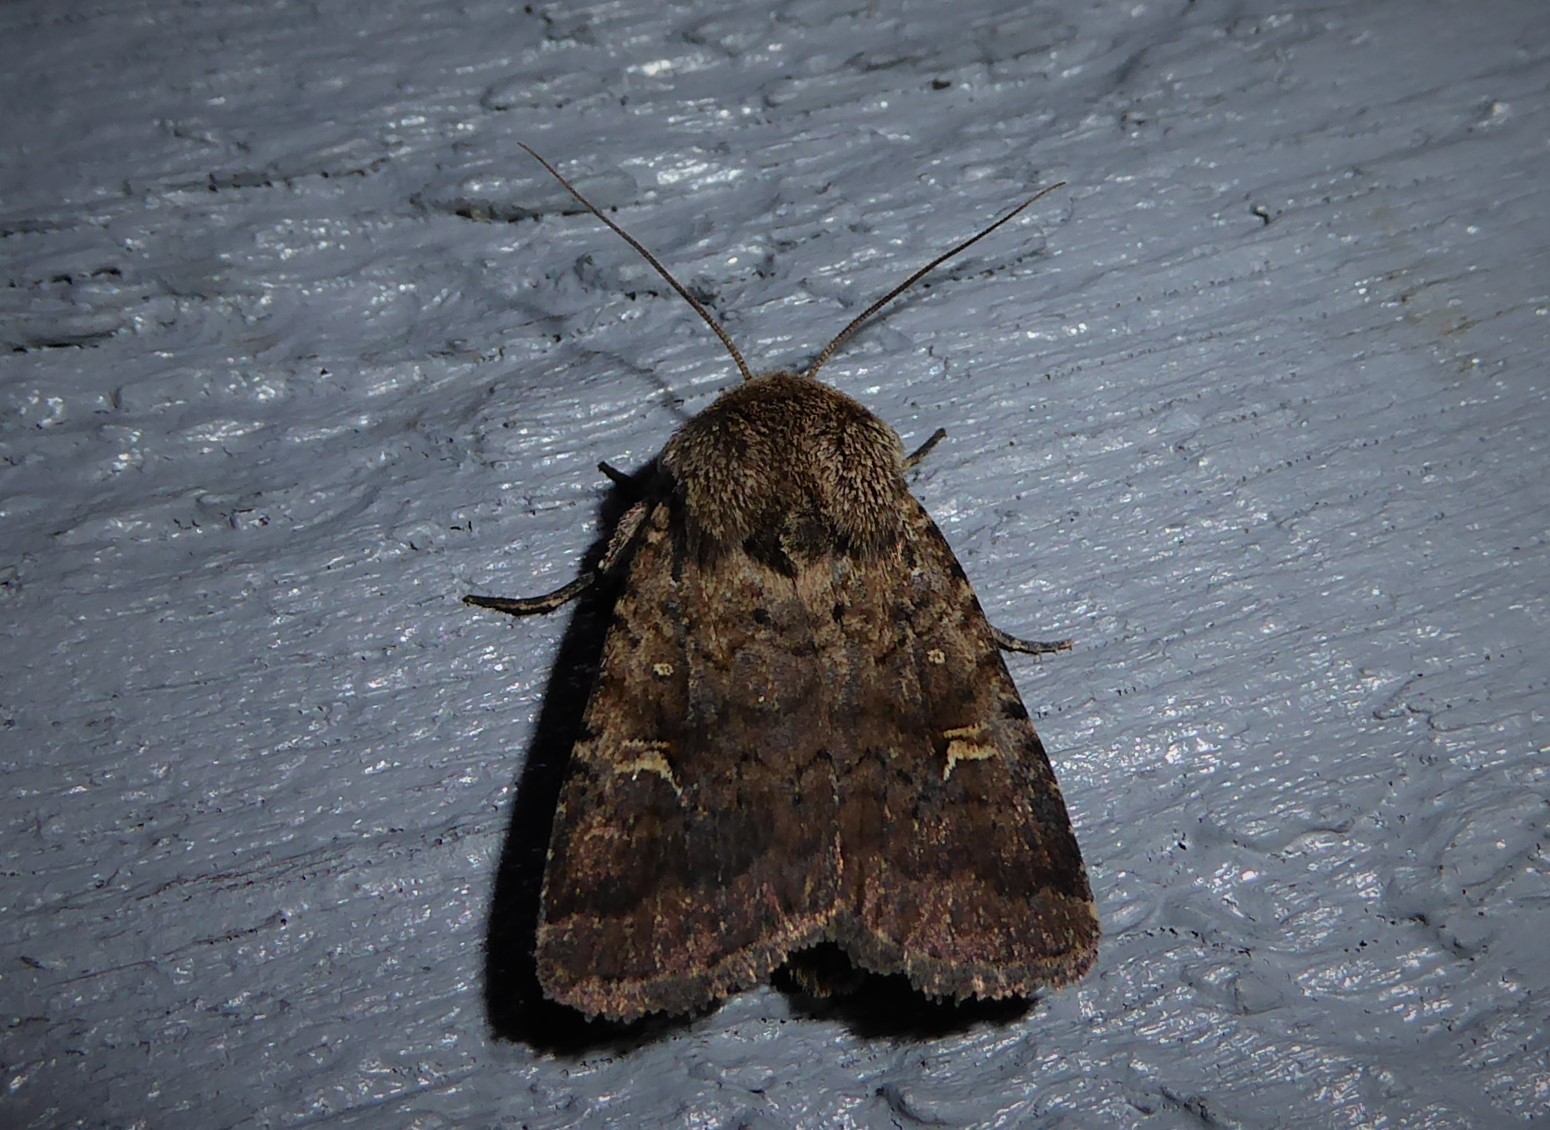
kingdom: Animalia
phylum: Arthropoda
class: Insecta
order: Lepidoptera
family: Noctuidae
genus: Proteuxoa
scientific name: Proteuxoa tetronycha
